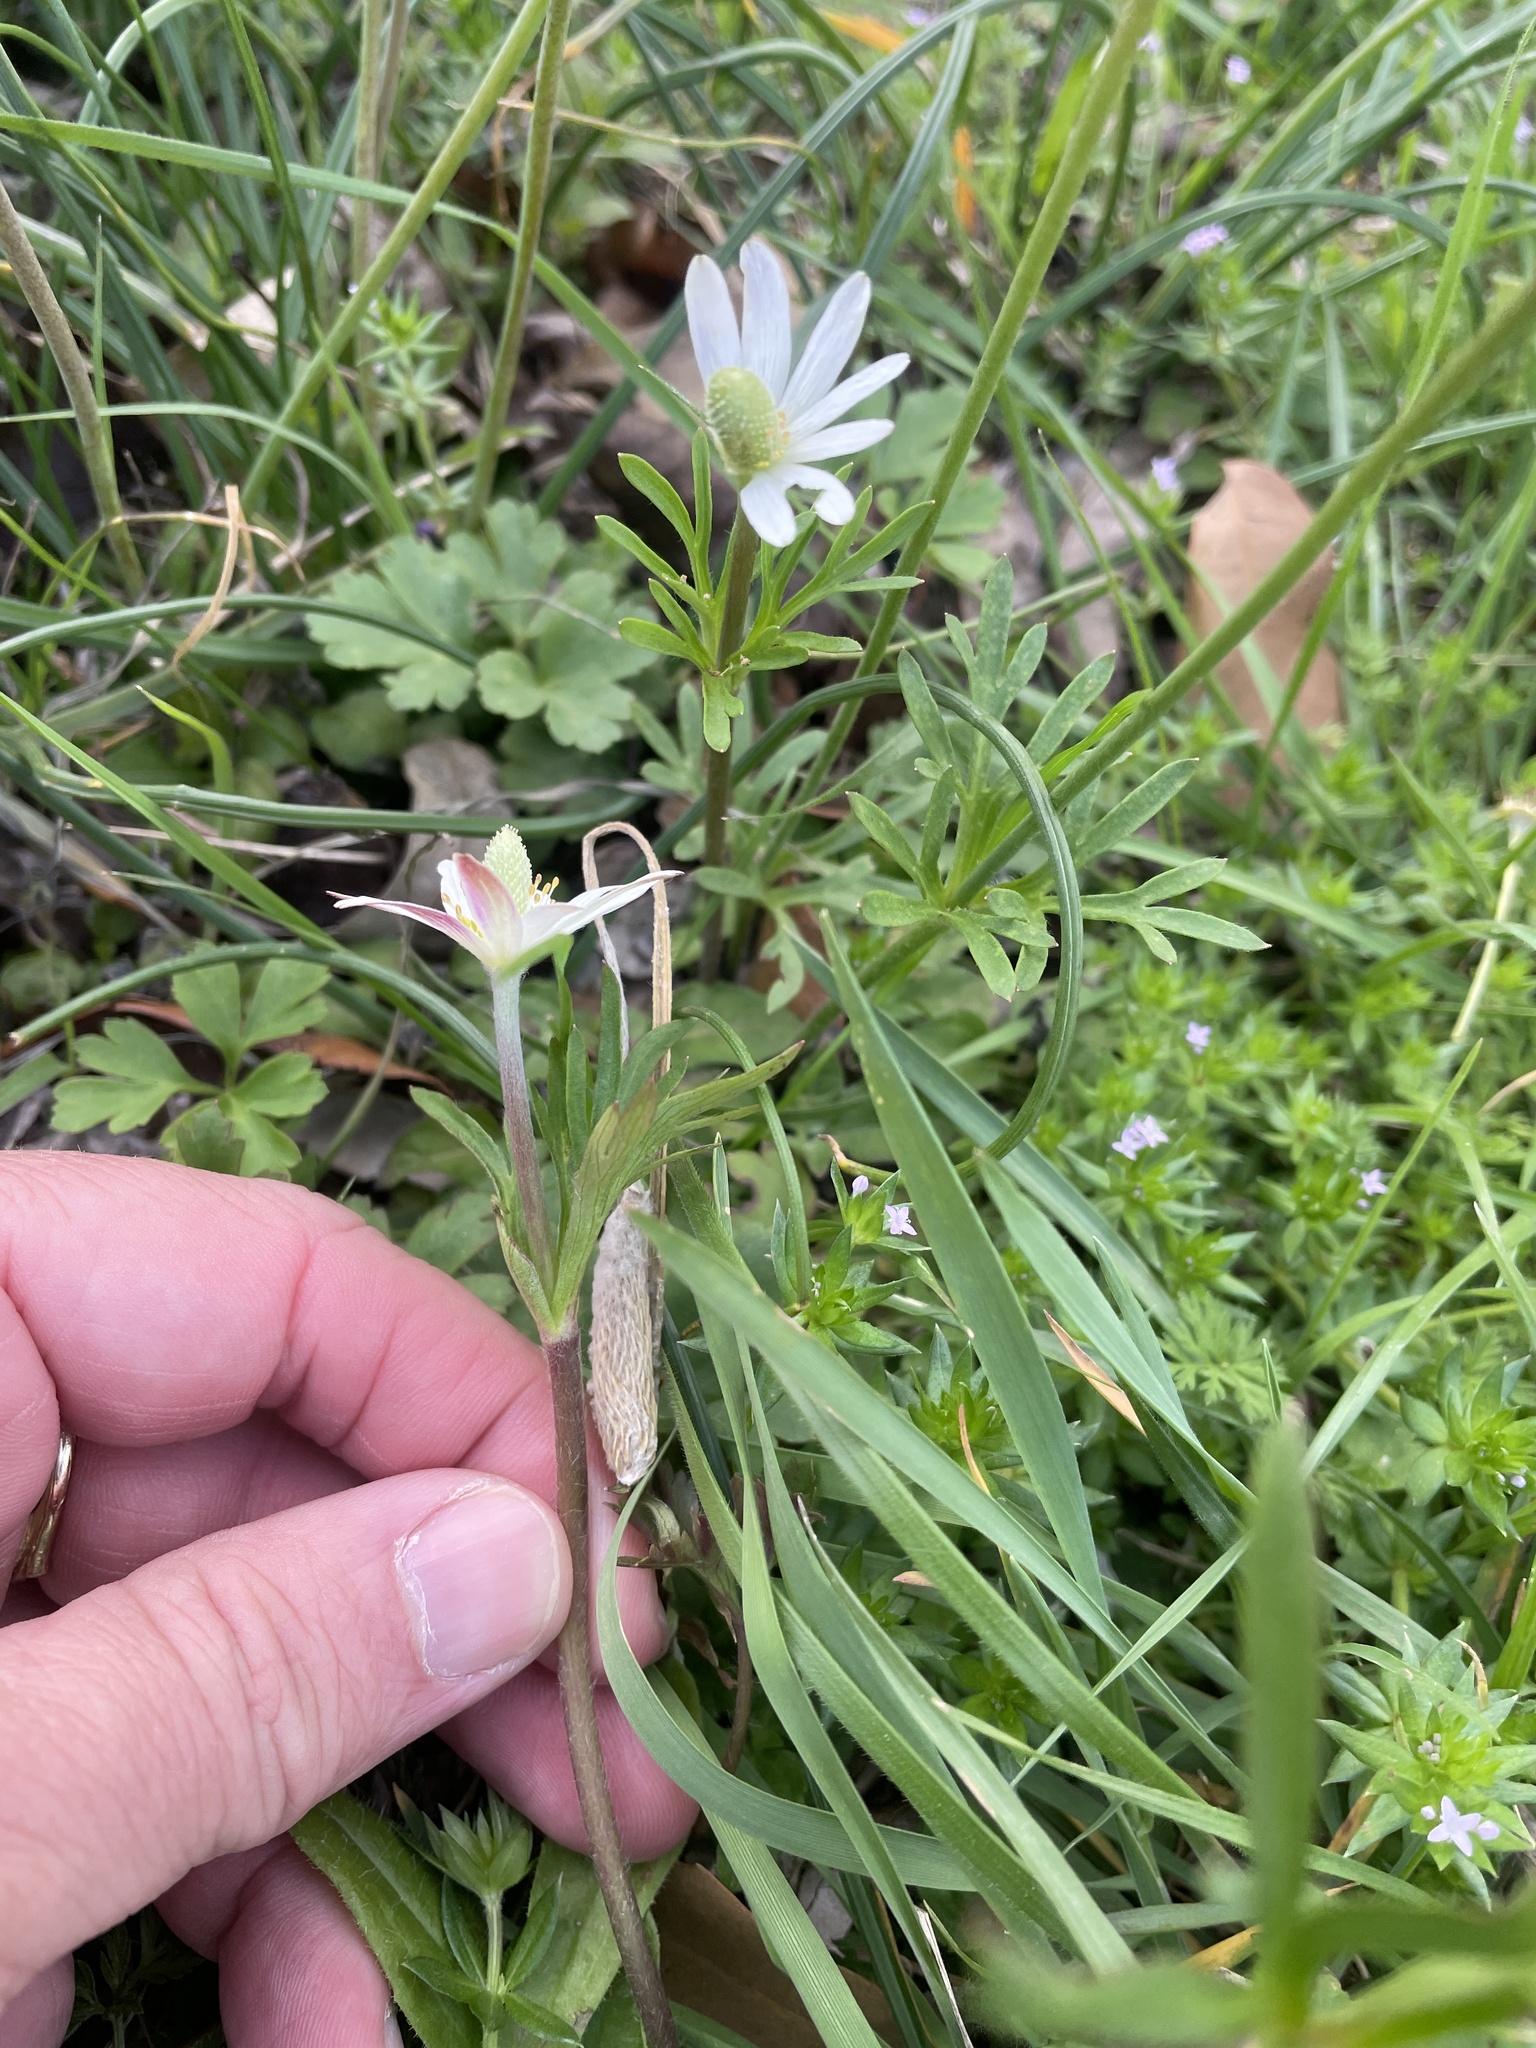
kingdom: Plantae
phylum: Tracheophyta
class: Magnoliopsida
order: Ranunculales
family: Ranunculaceae
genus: Anemone
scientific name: Anemone berlandieri
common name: Ten-petal anemone
